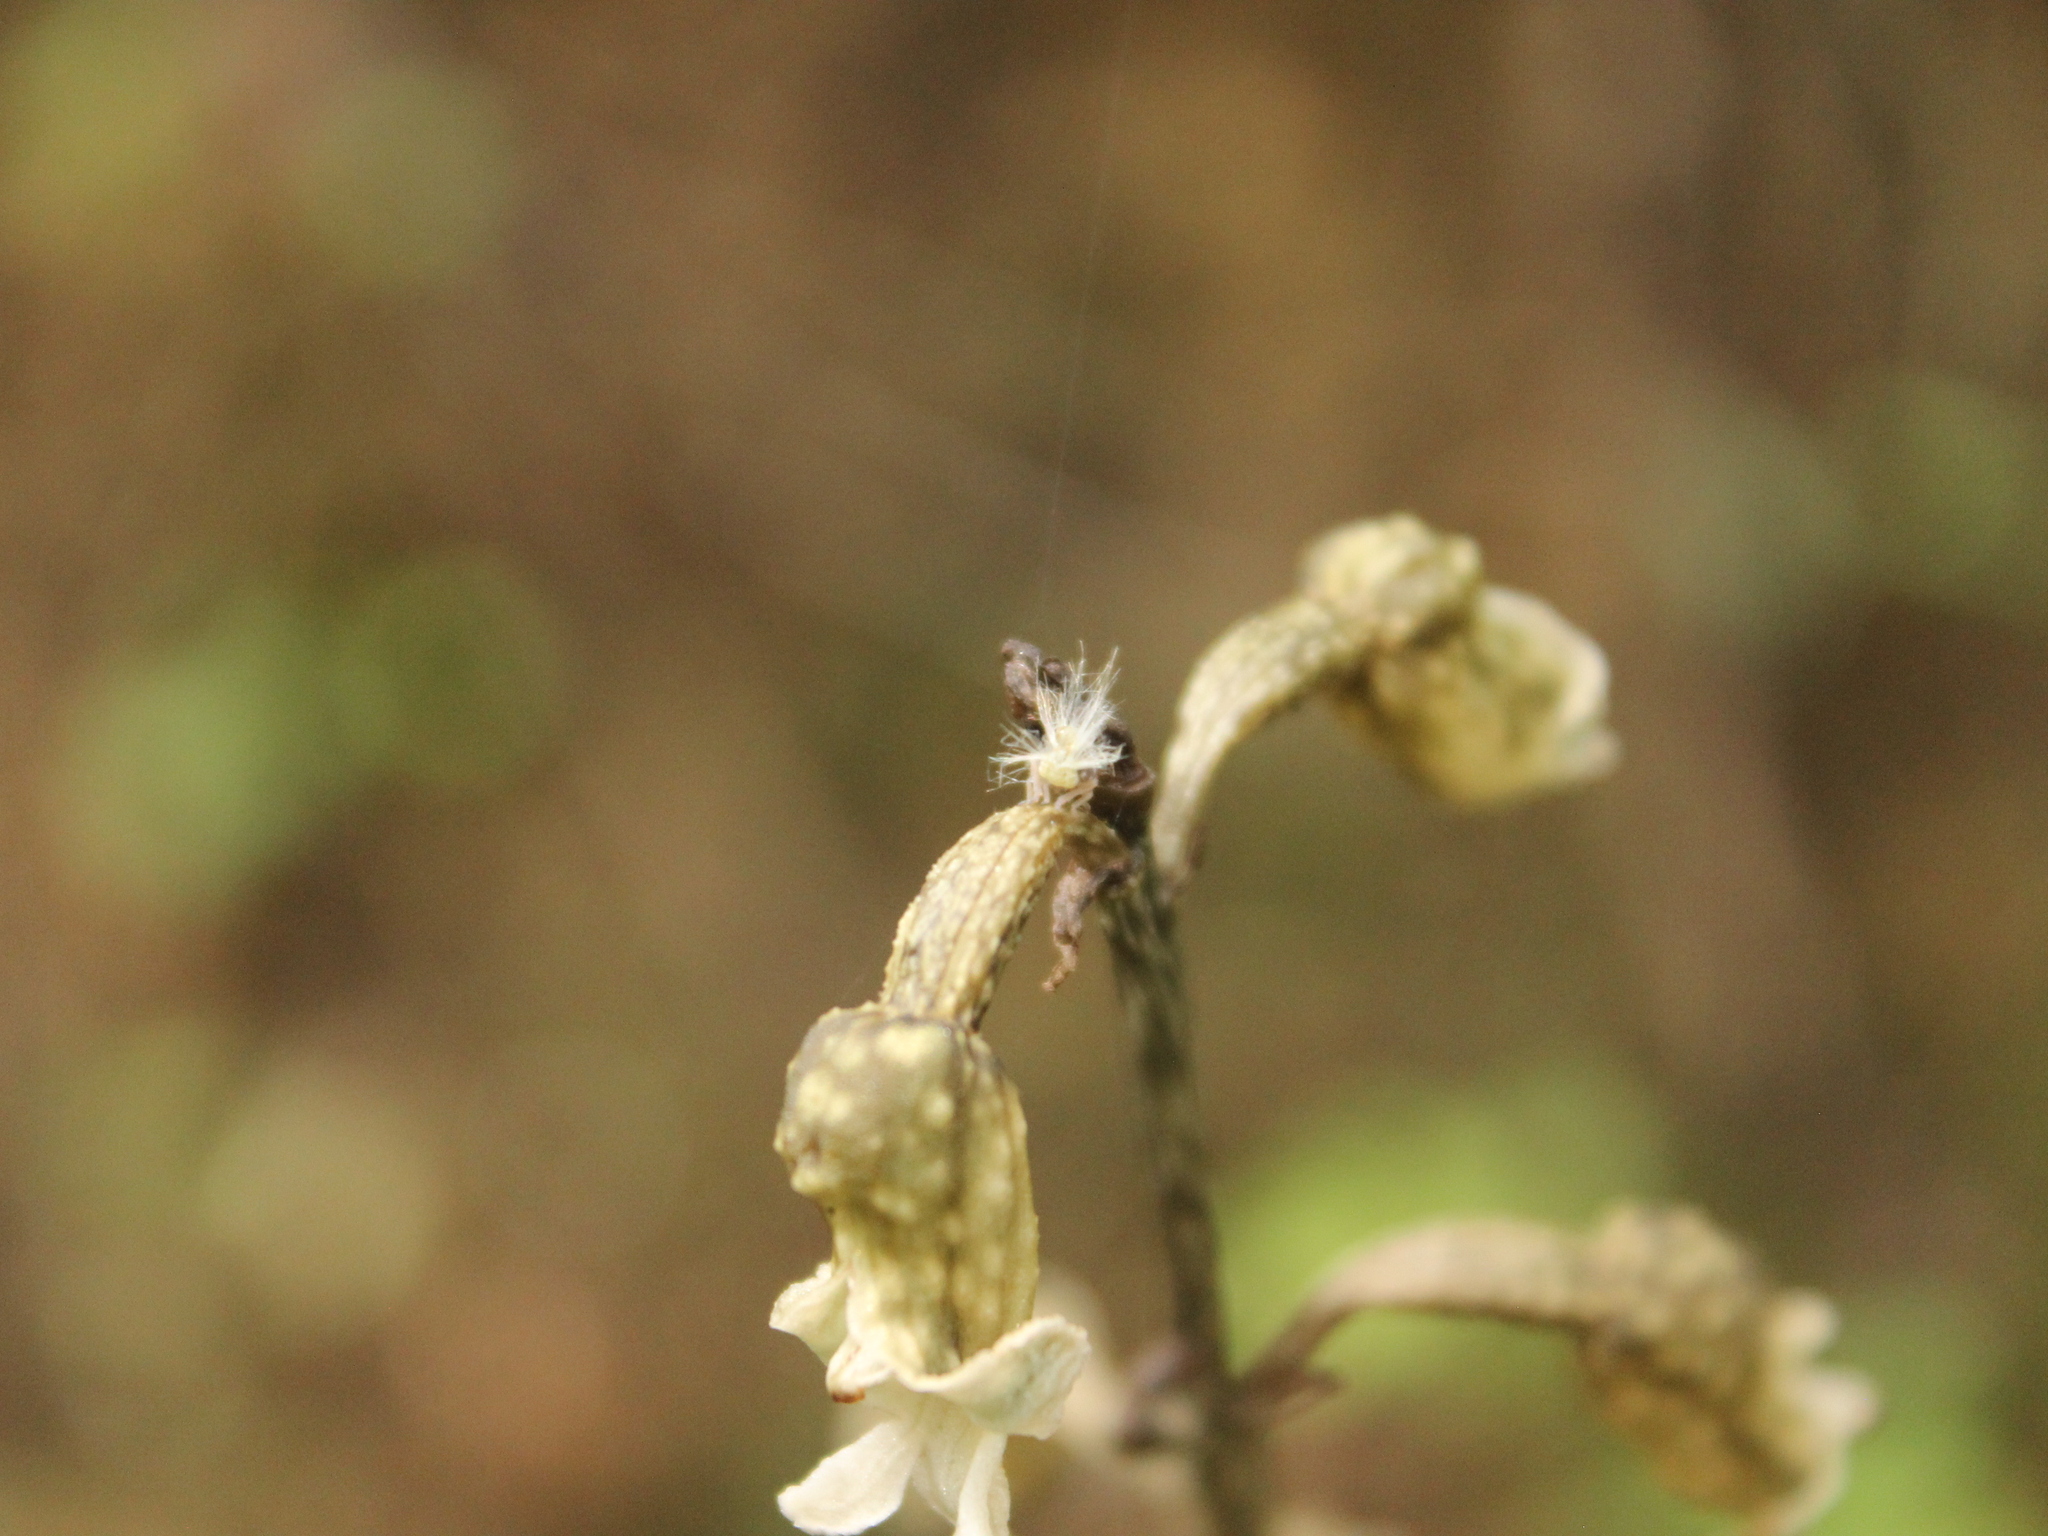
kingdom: Animalia
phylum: Arthropoda
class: Insecta
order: Hemiptera
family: Ricaniidae
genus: Scolypopa
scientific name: Scolypopa australis
